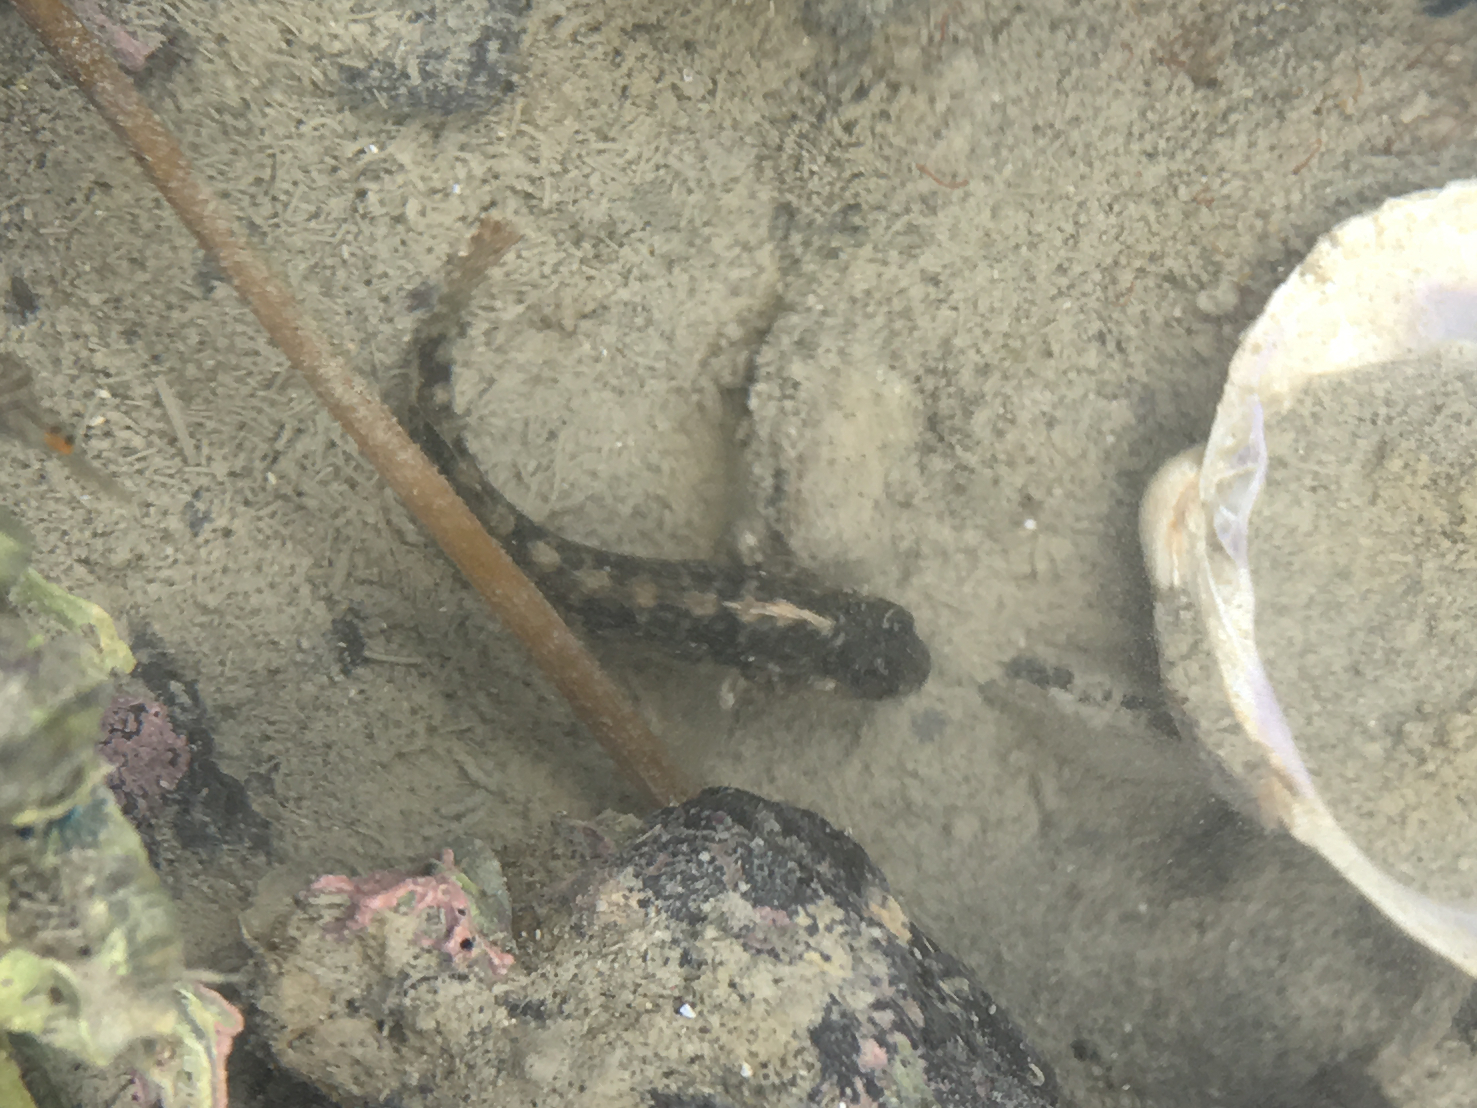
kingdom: Animalia
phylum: Chordata
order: Perciformes
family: Tripterygiidae
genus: Forsterygion
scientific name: Forsterygion nigripenne
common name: Cockabully
